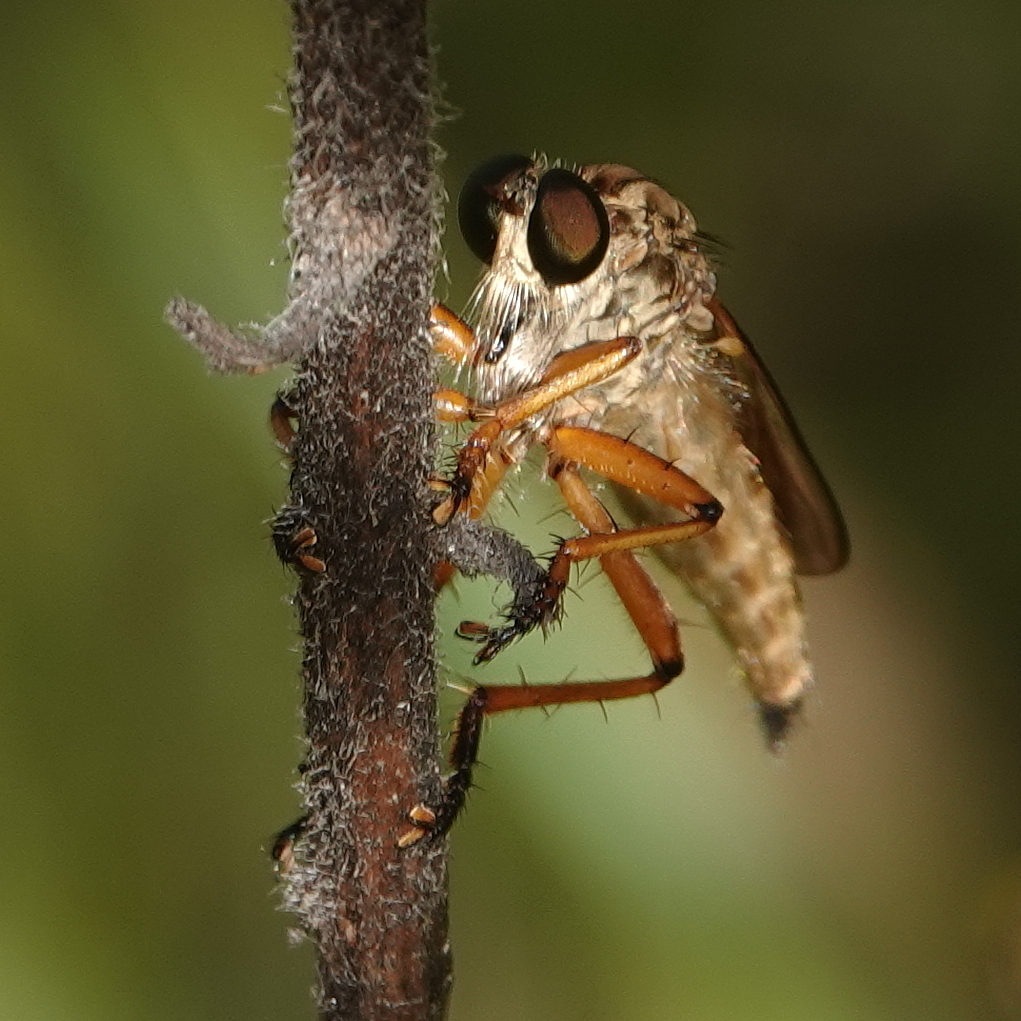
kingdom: Animalia
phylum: Arthropoda
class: Insecta
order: Diptera
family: Asilidae
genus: Zosteria
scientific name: Zosteria fulvipubescens
